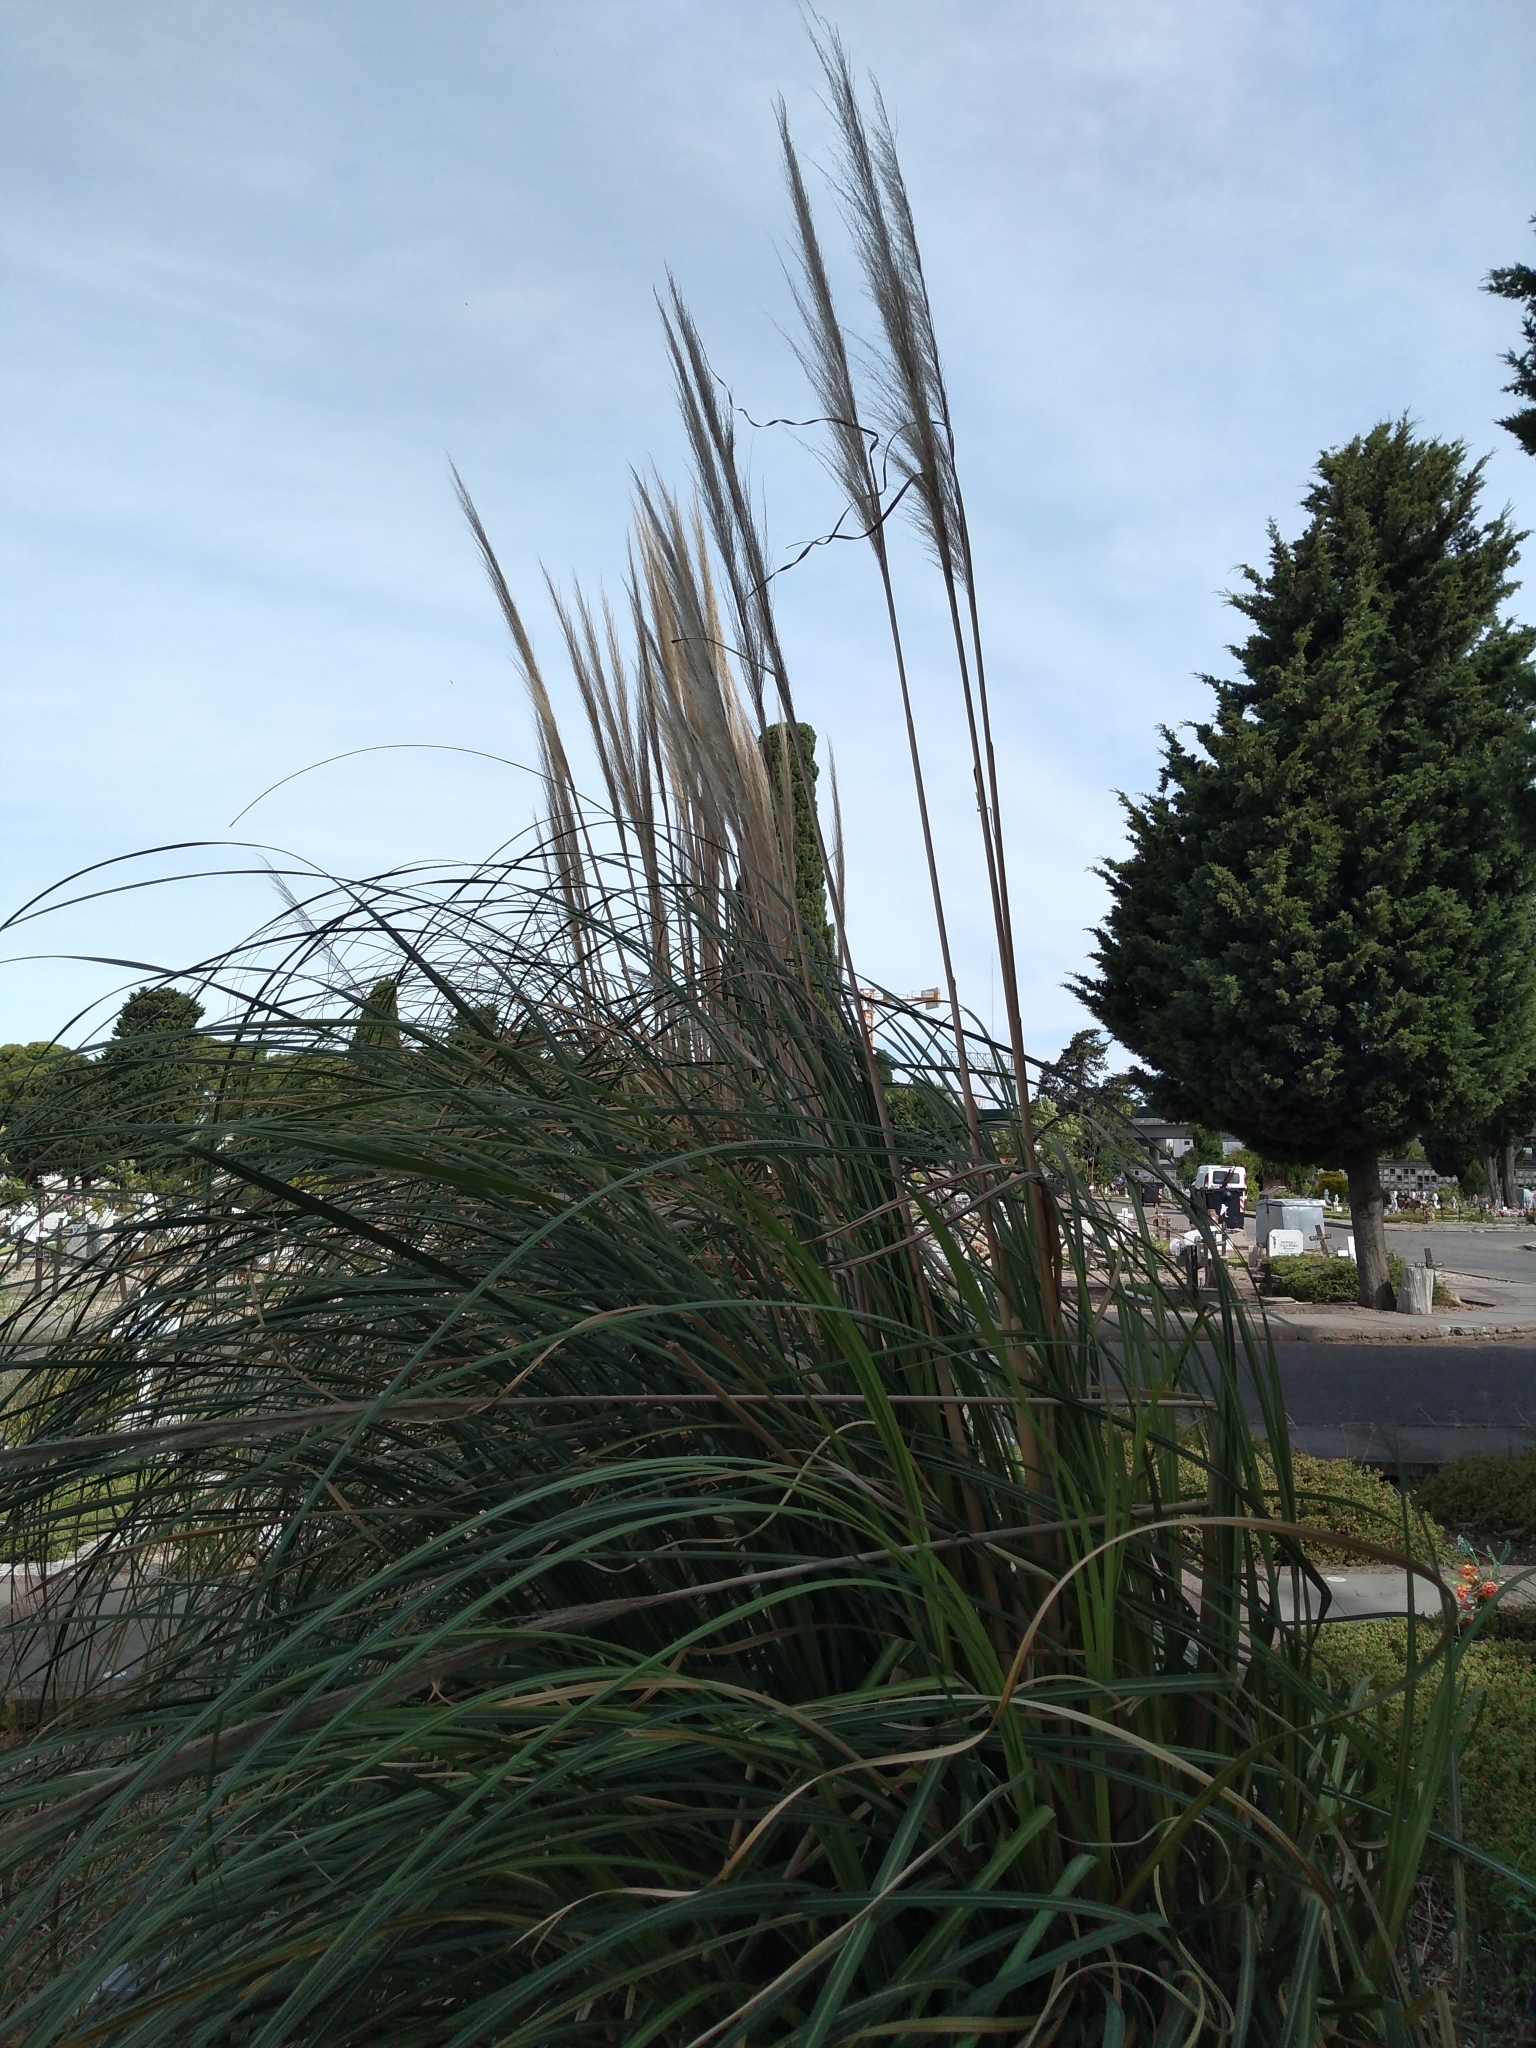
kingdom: Plantae
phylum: Tracheophyta
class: Liliopsida
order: Poales
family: Poaceae
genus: Cortaderia
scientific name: Cortaderia selloana
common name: Uruguayan pampas grass
